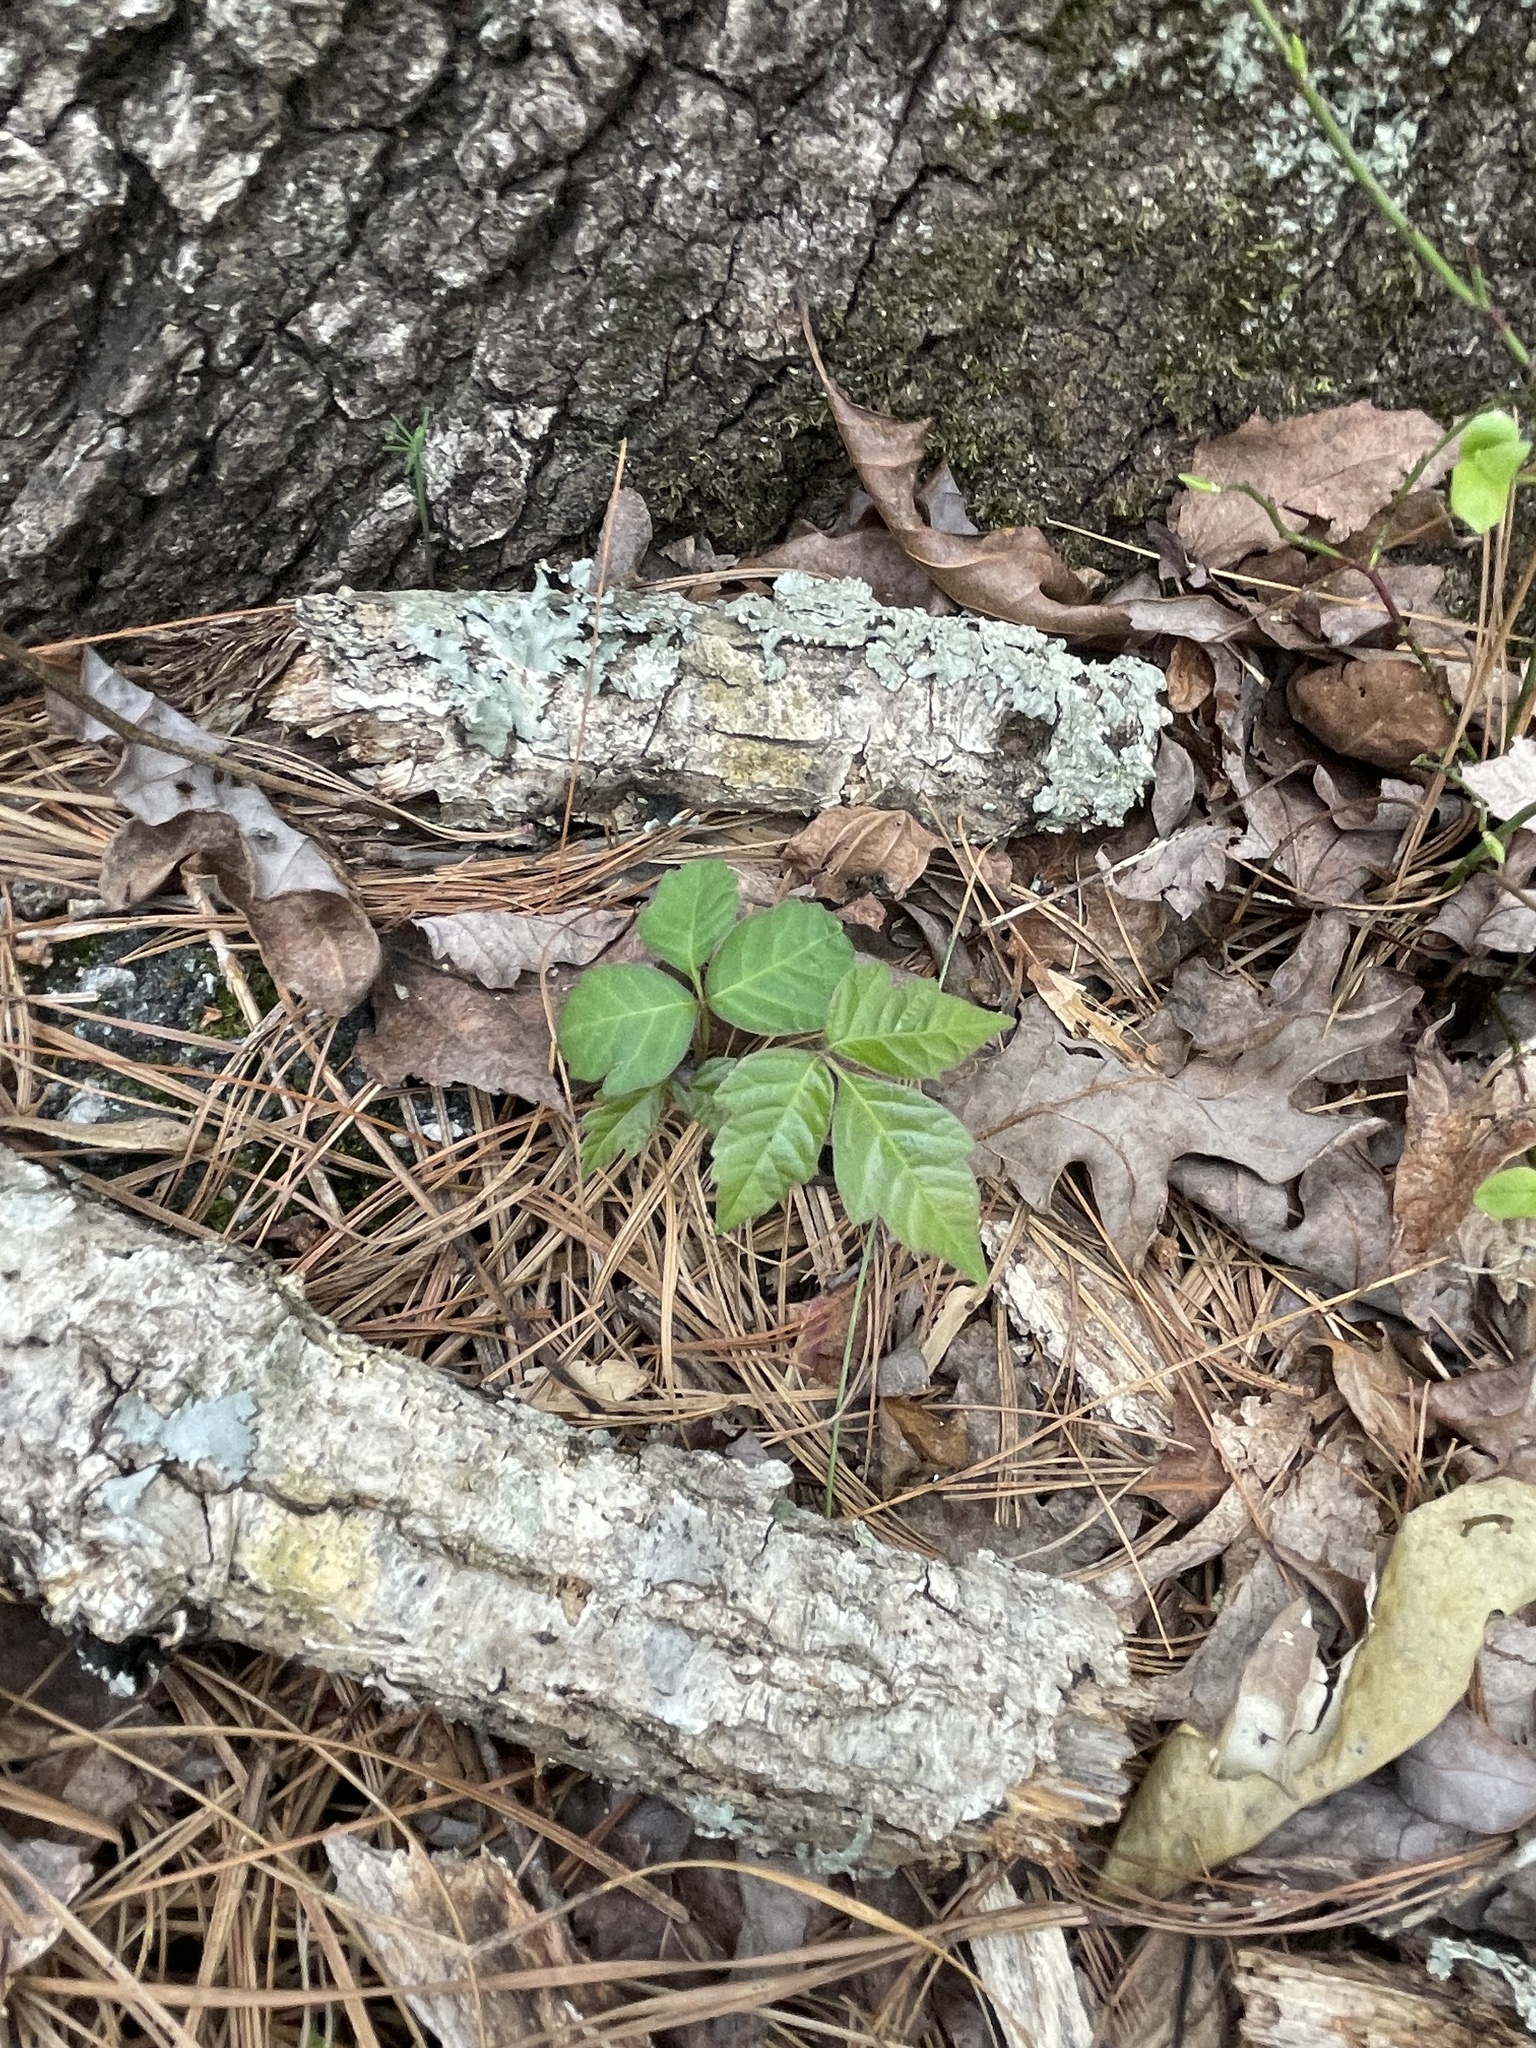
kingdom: Plantae
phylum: Tracheophyta
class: Magnoliopsida
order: Sapindales
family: Anacardiaceae
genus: Toxicodendron
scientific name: Toxicodendron radicans
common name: Poison ivy
